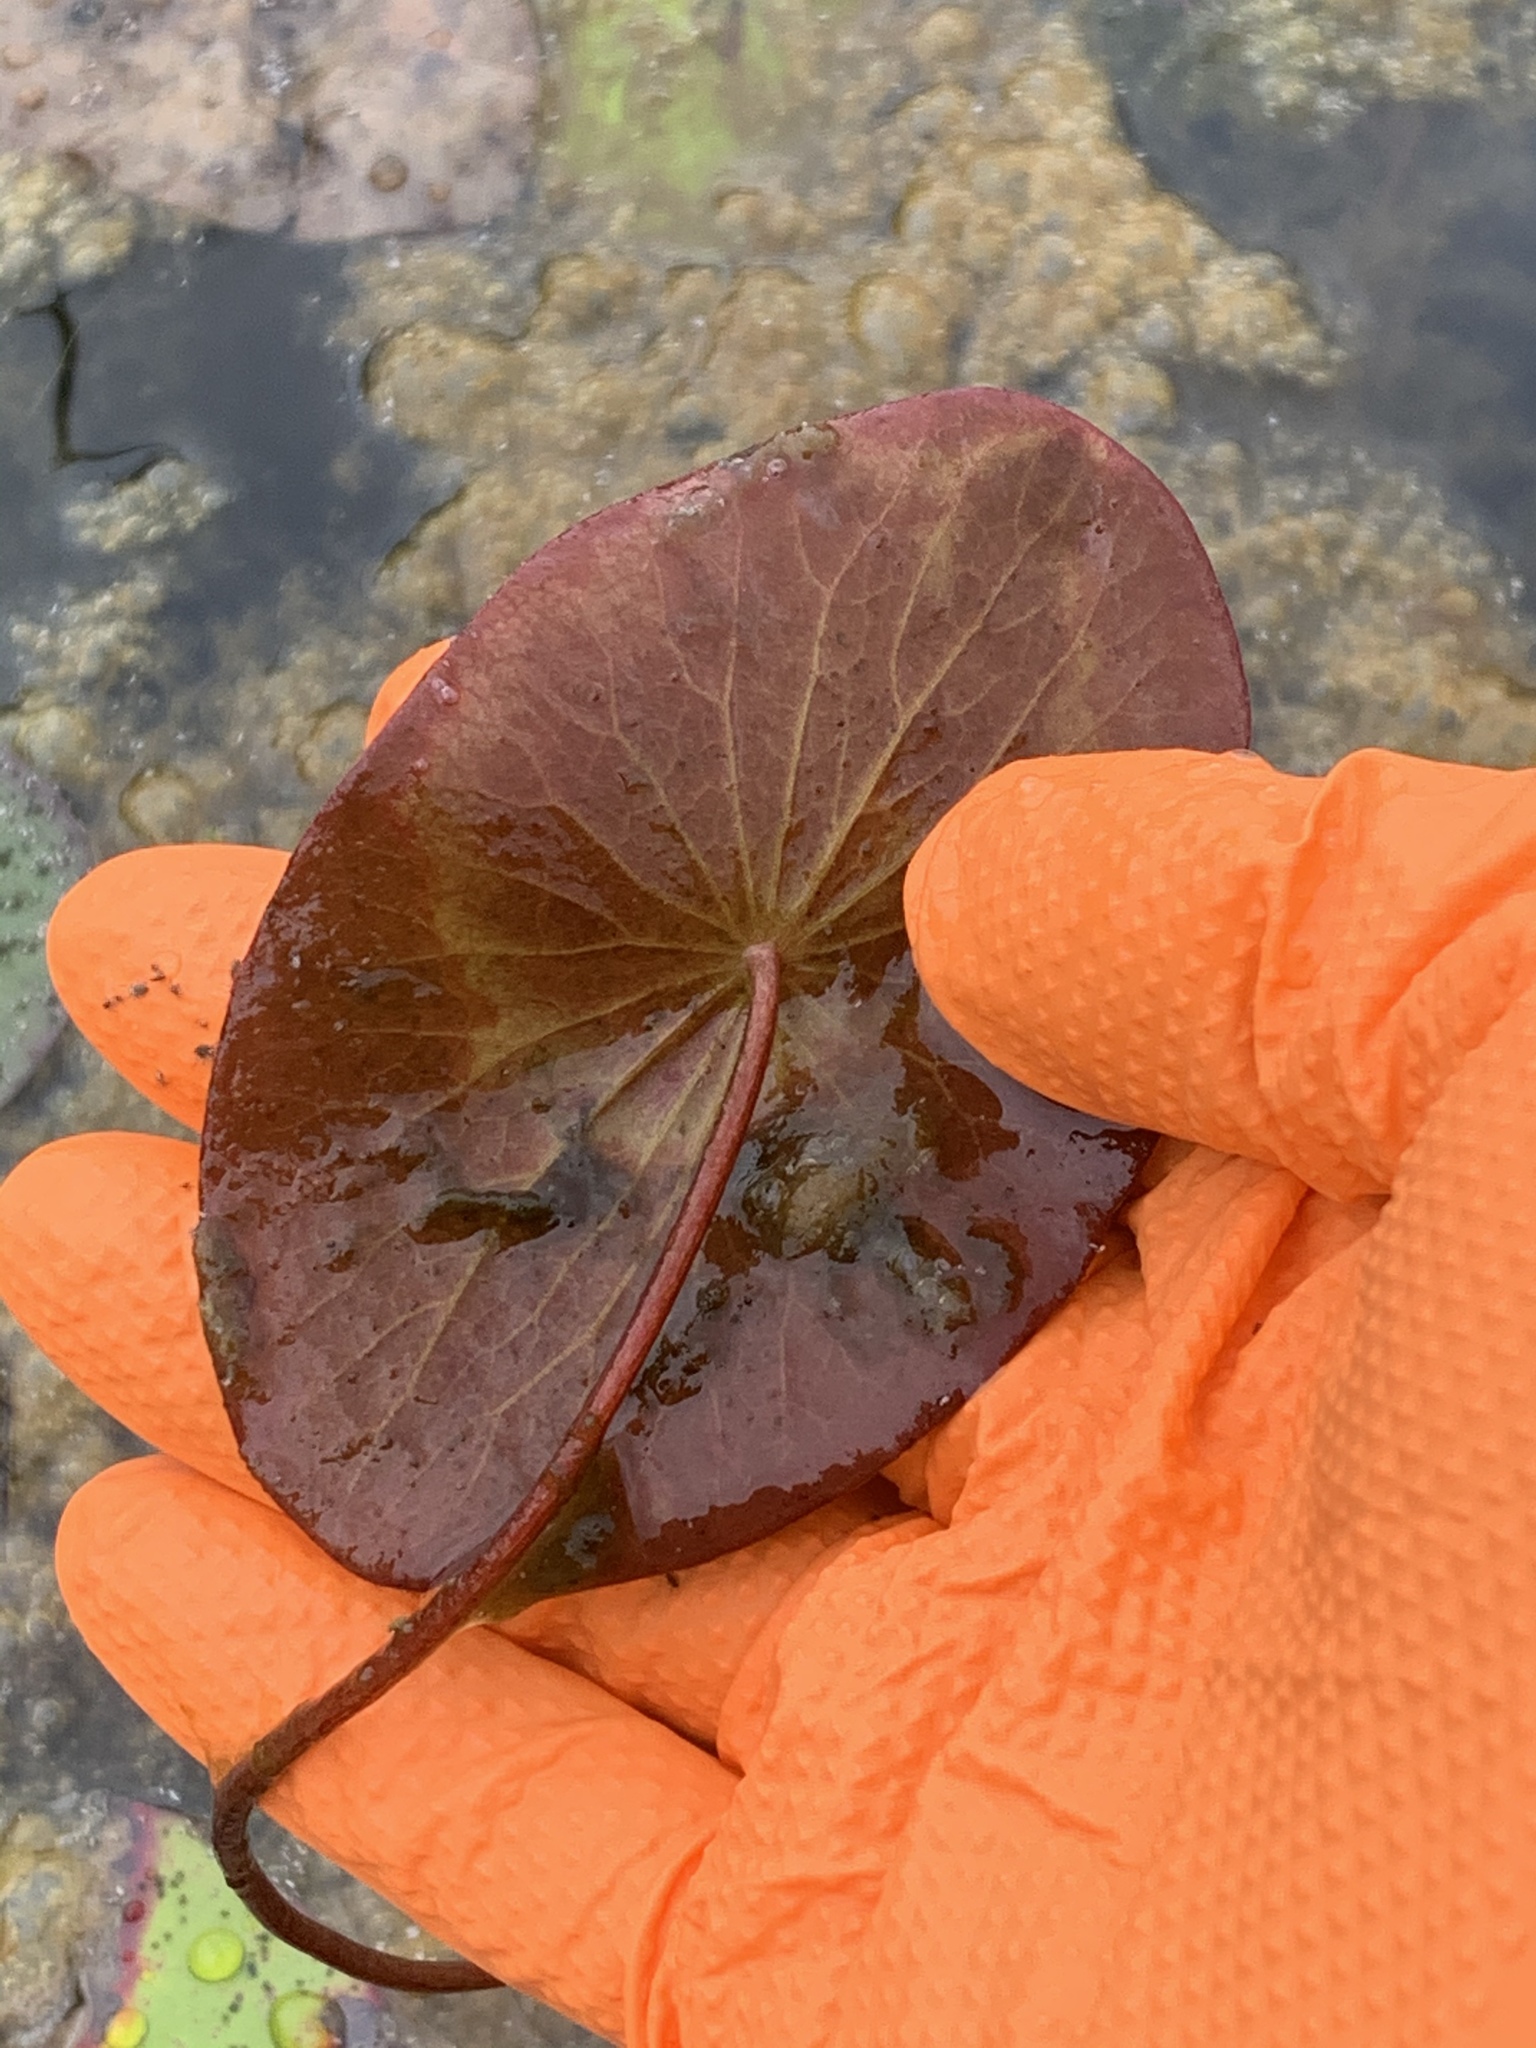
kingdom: Plantae
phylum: Tracheophyta
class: Magnoliopsida
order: Nymphaeales
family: Cabombaceae
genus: Brasenia
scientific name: Brasenia schreberi
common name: Water-shield
